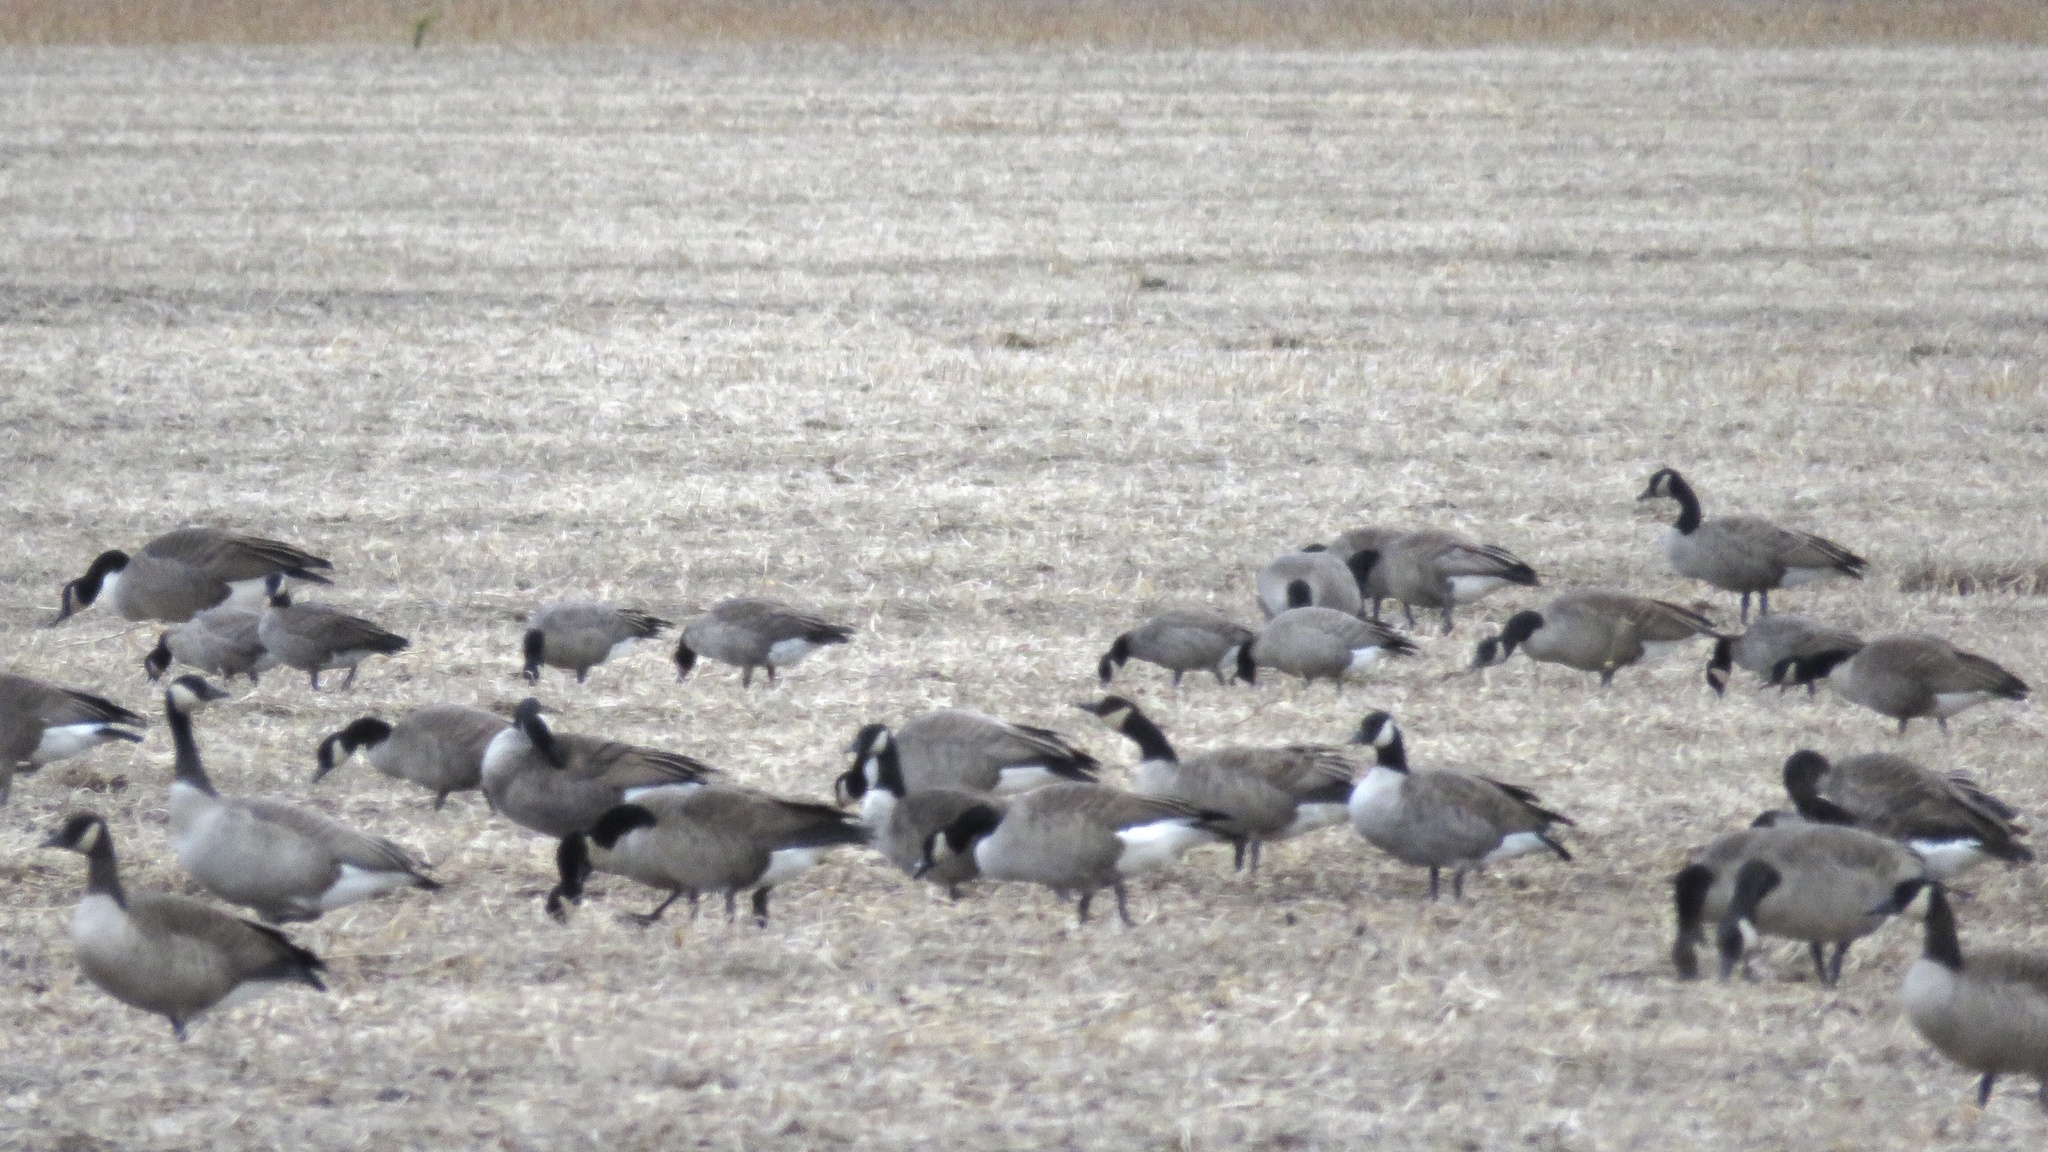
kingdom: Animalia
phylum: Chordata
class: Aves
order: Anseriformes
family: Anatidae
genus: Branta
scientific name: Branta hutchinsii
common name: Cackling goose
